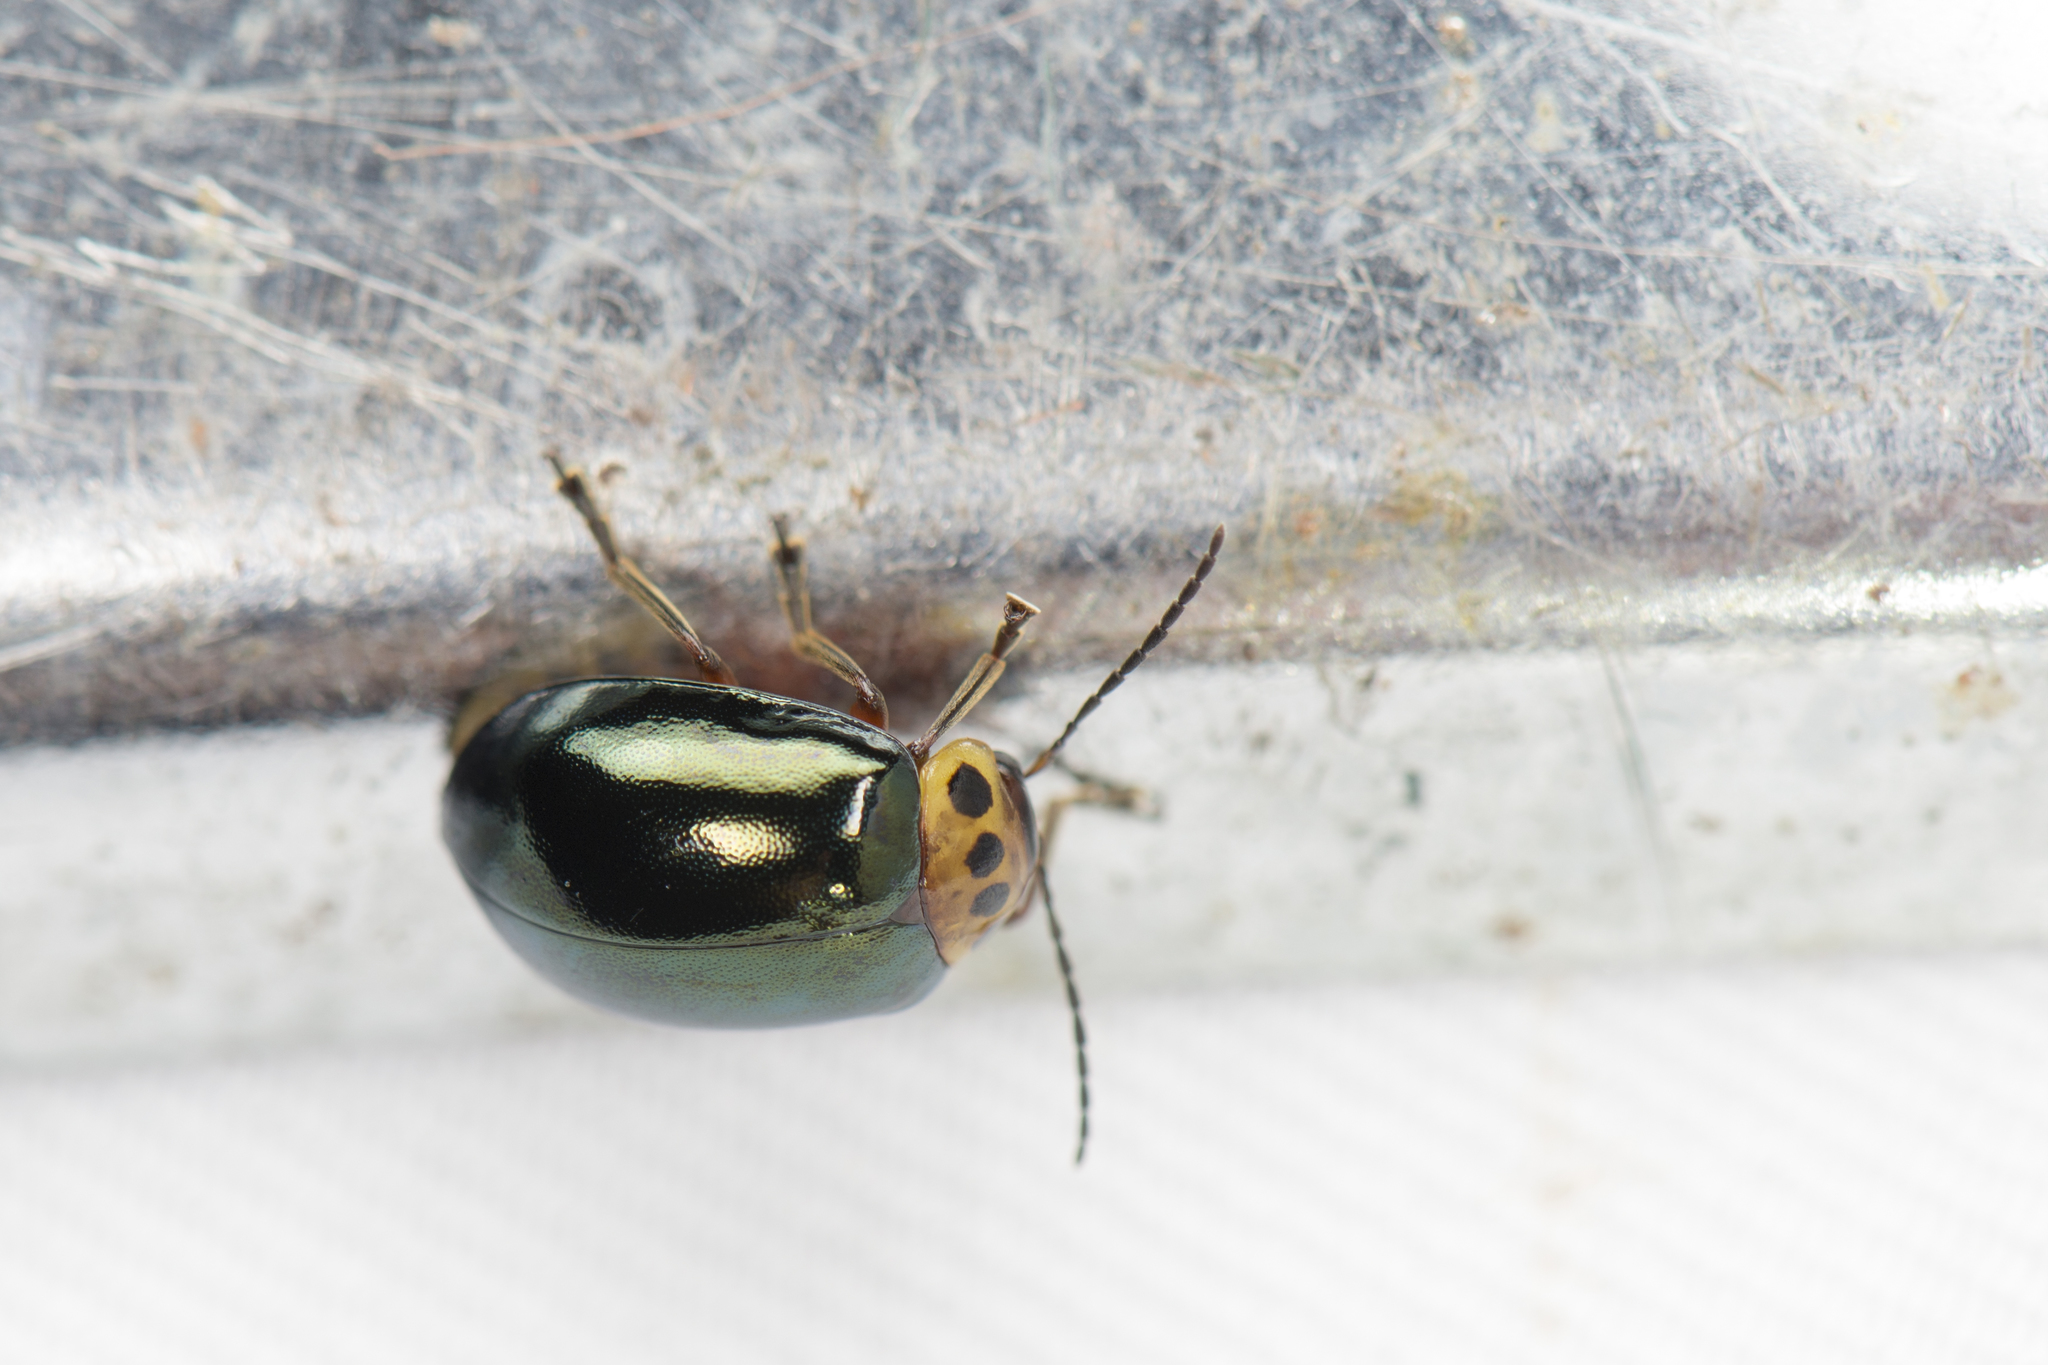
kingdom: Animalia
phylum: Arthropoda
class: Insecta
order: Coleoptera
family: Chrysomelidae
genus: Morphosphaera
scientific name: Morphosphaera chrysomeloides
